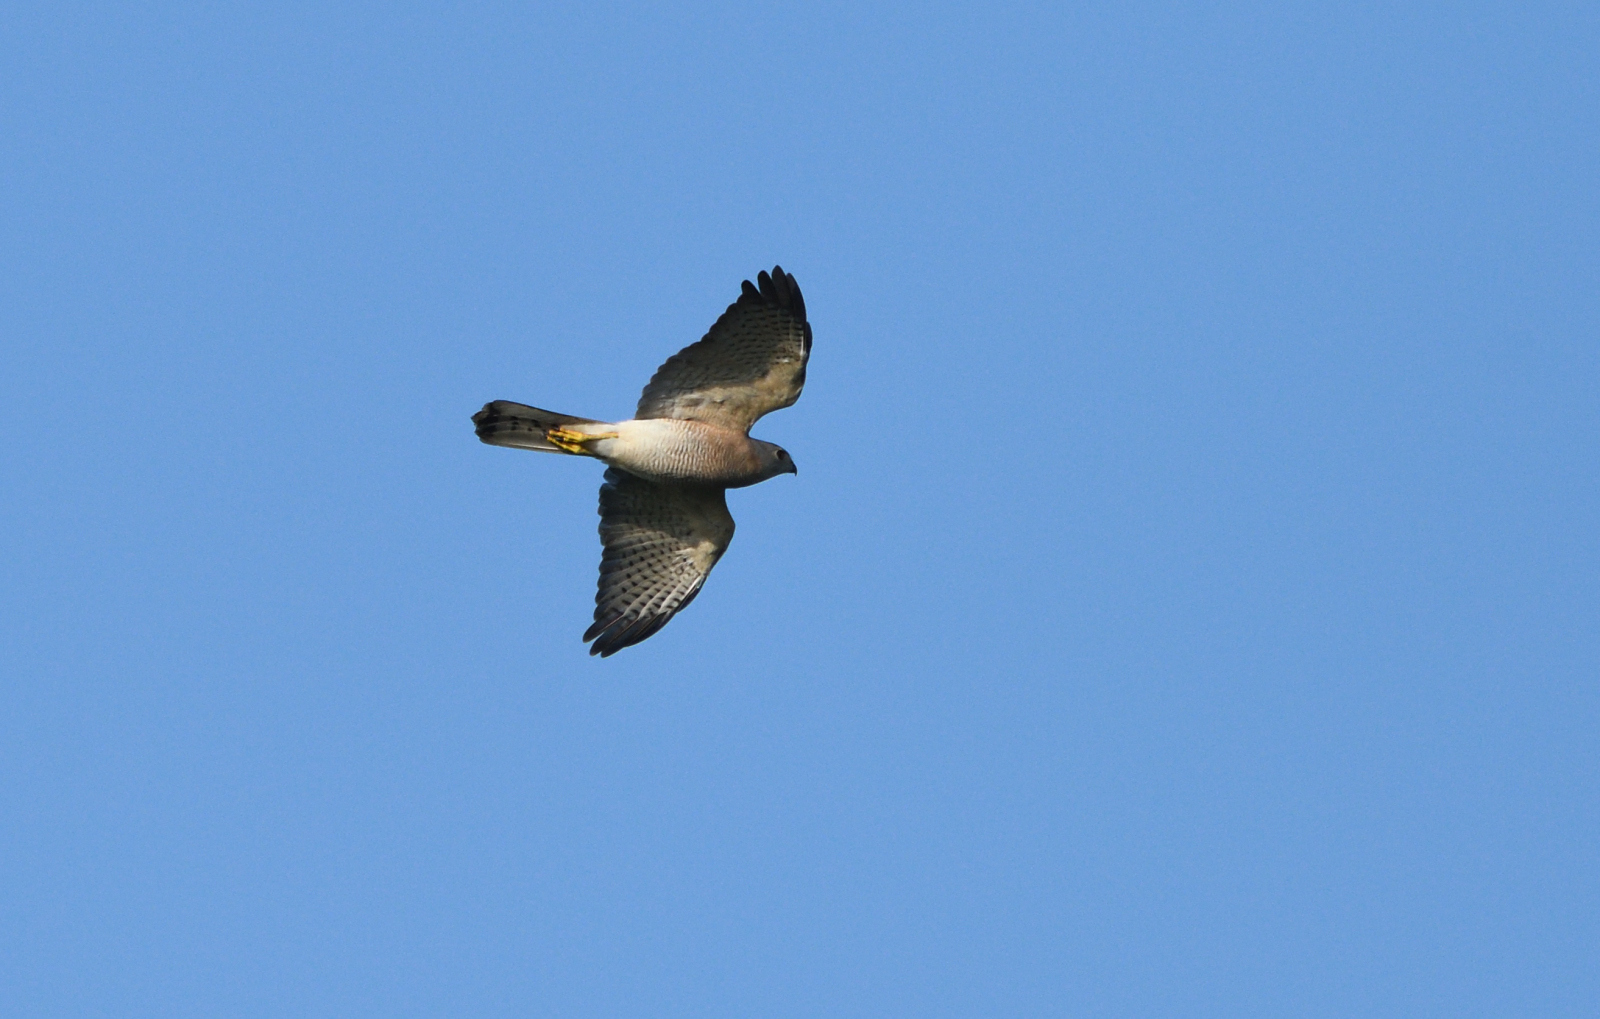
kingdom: Animalia
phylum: Chordata
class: Aves
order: Accipitriformes
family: Accipitridae
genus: Accipiter
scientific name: Accipiter badius
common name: Shikra
